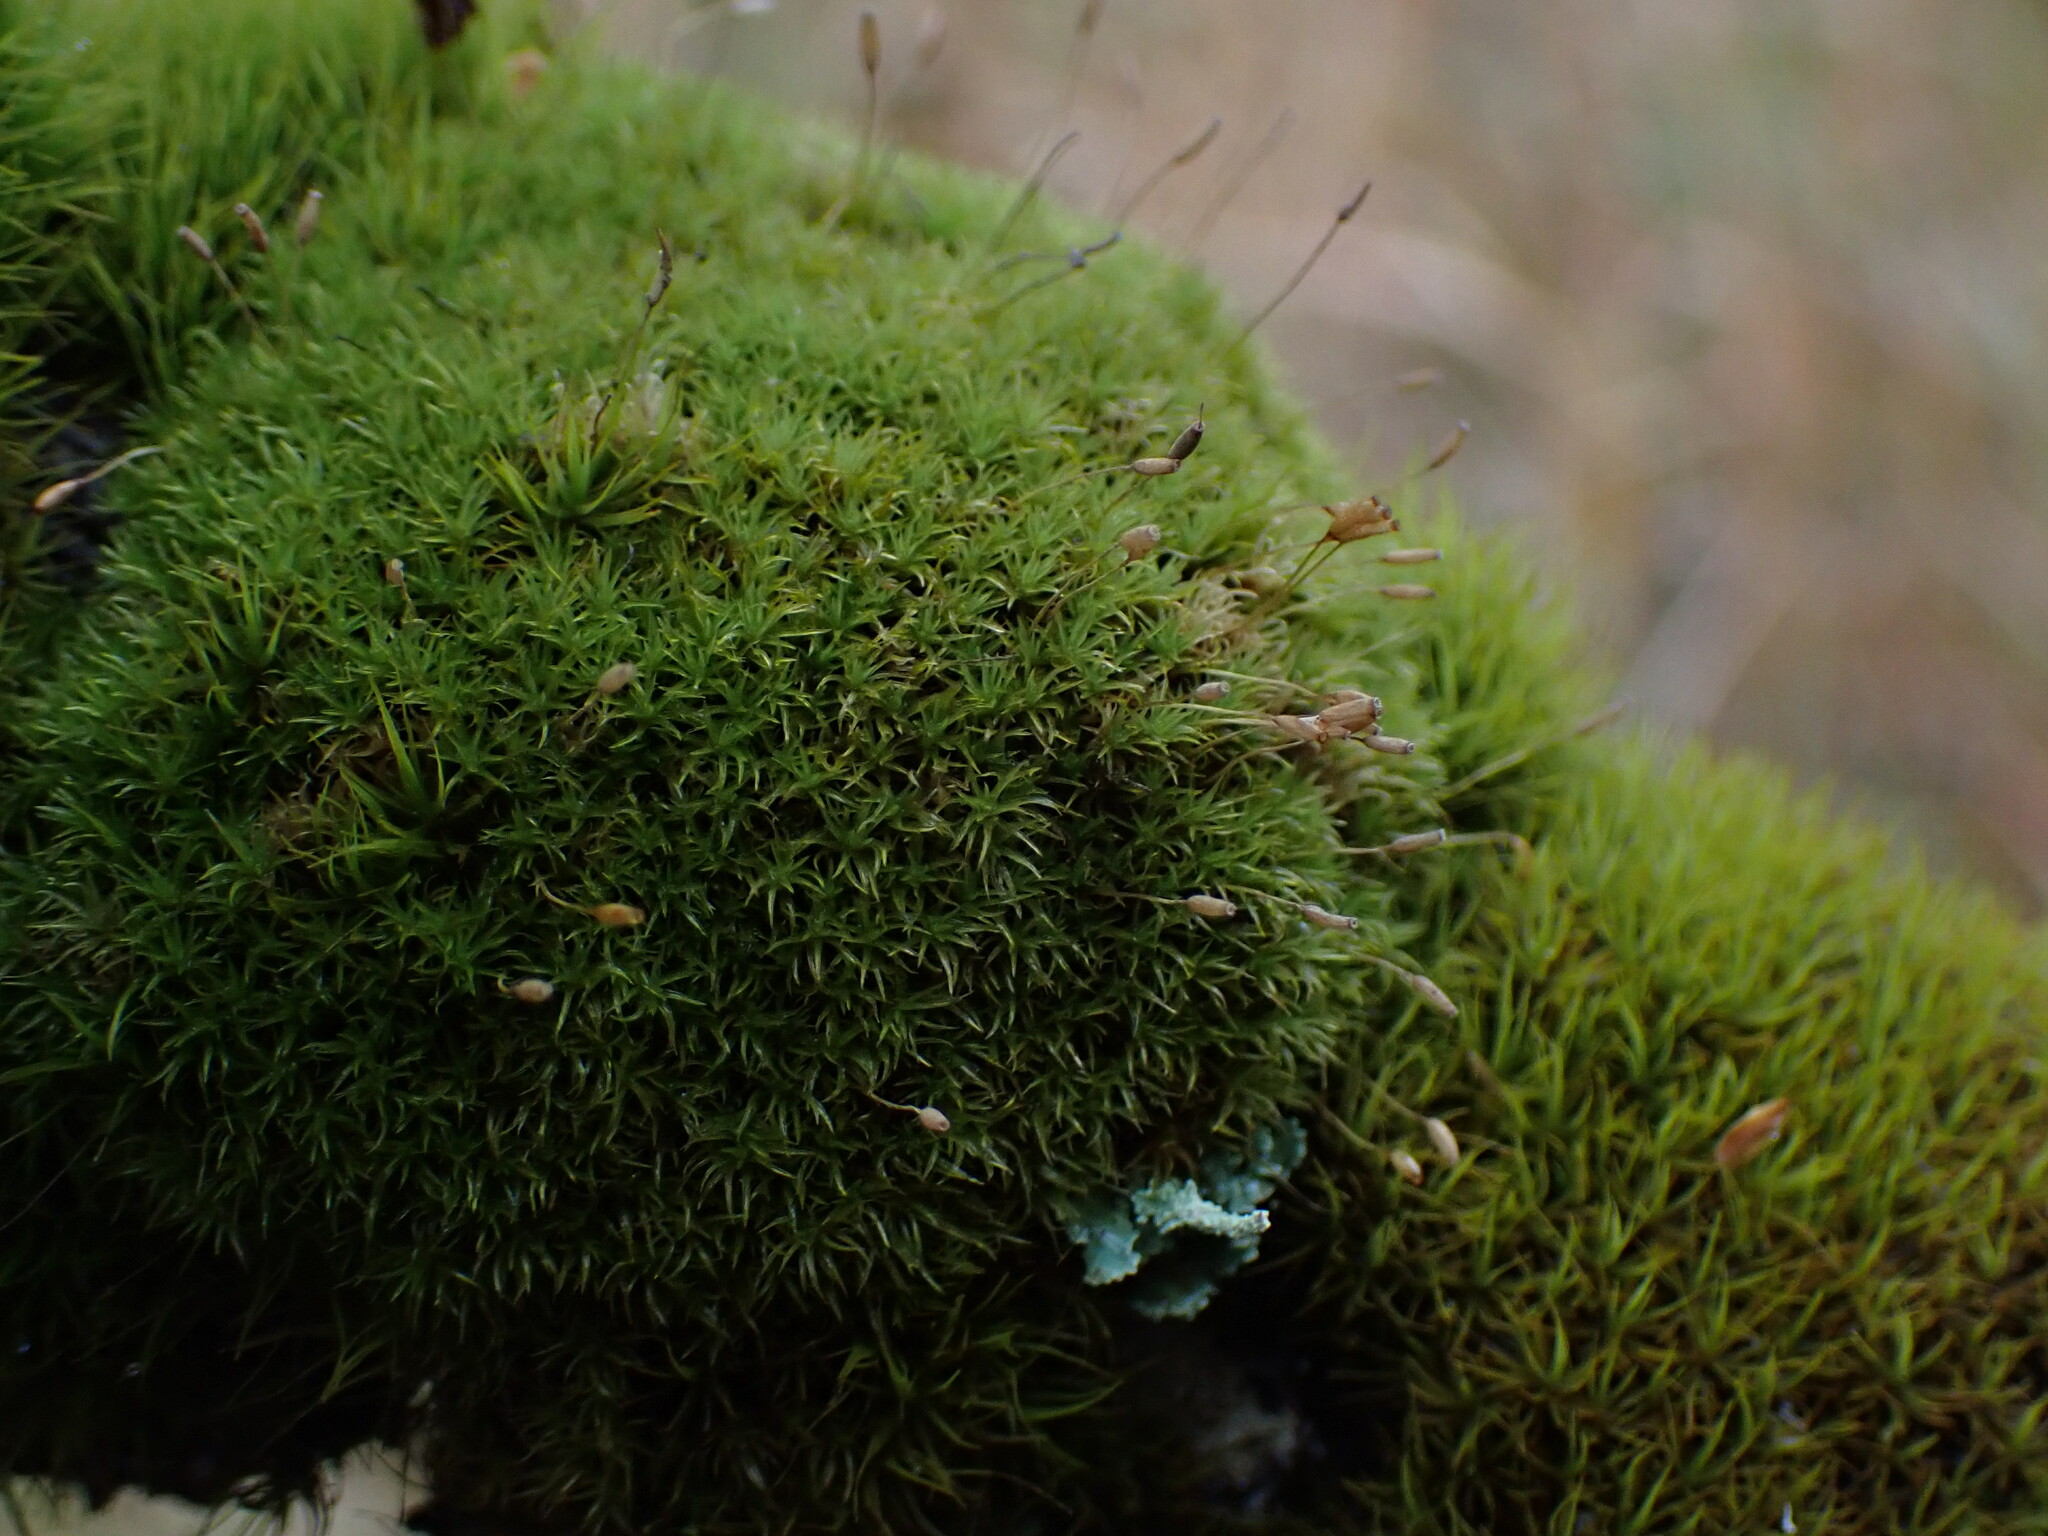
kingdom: Plantae
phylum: Bryophyta
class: Bryopsida
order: Dicranales
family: Rhabdoweisiaceae
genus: Dicranoweisia
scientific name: Dicranoweisia cirrata
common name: Common pincushion
